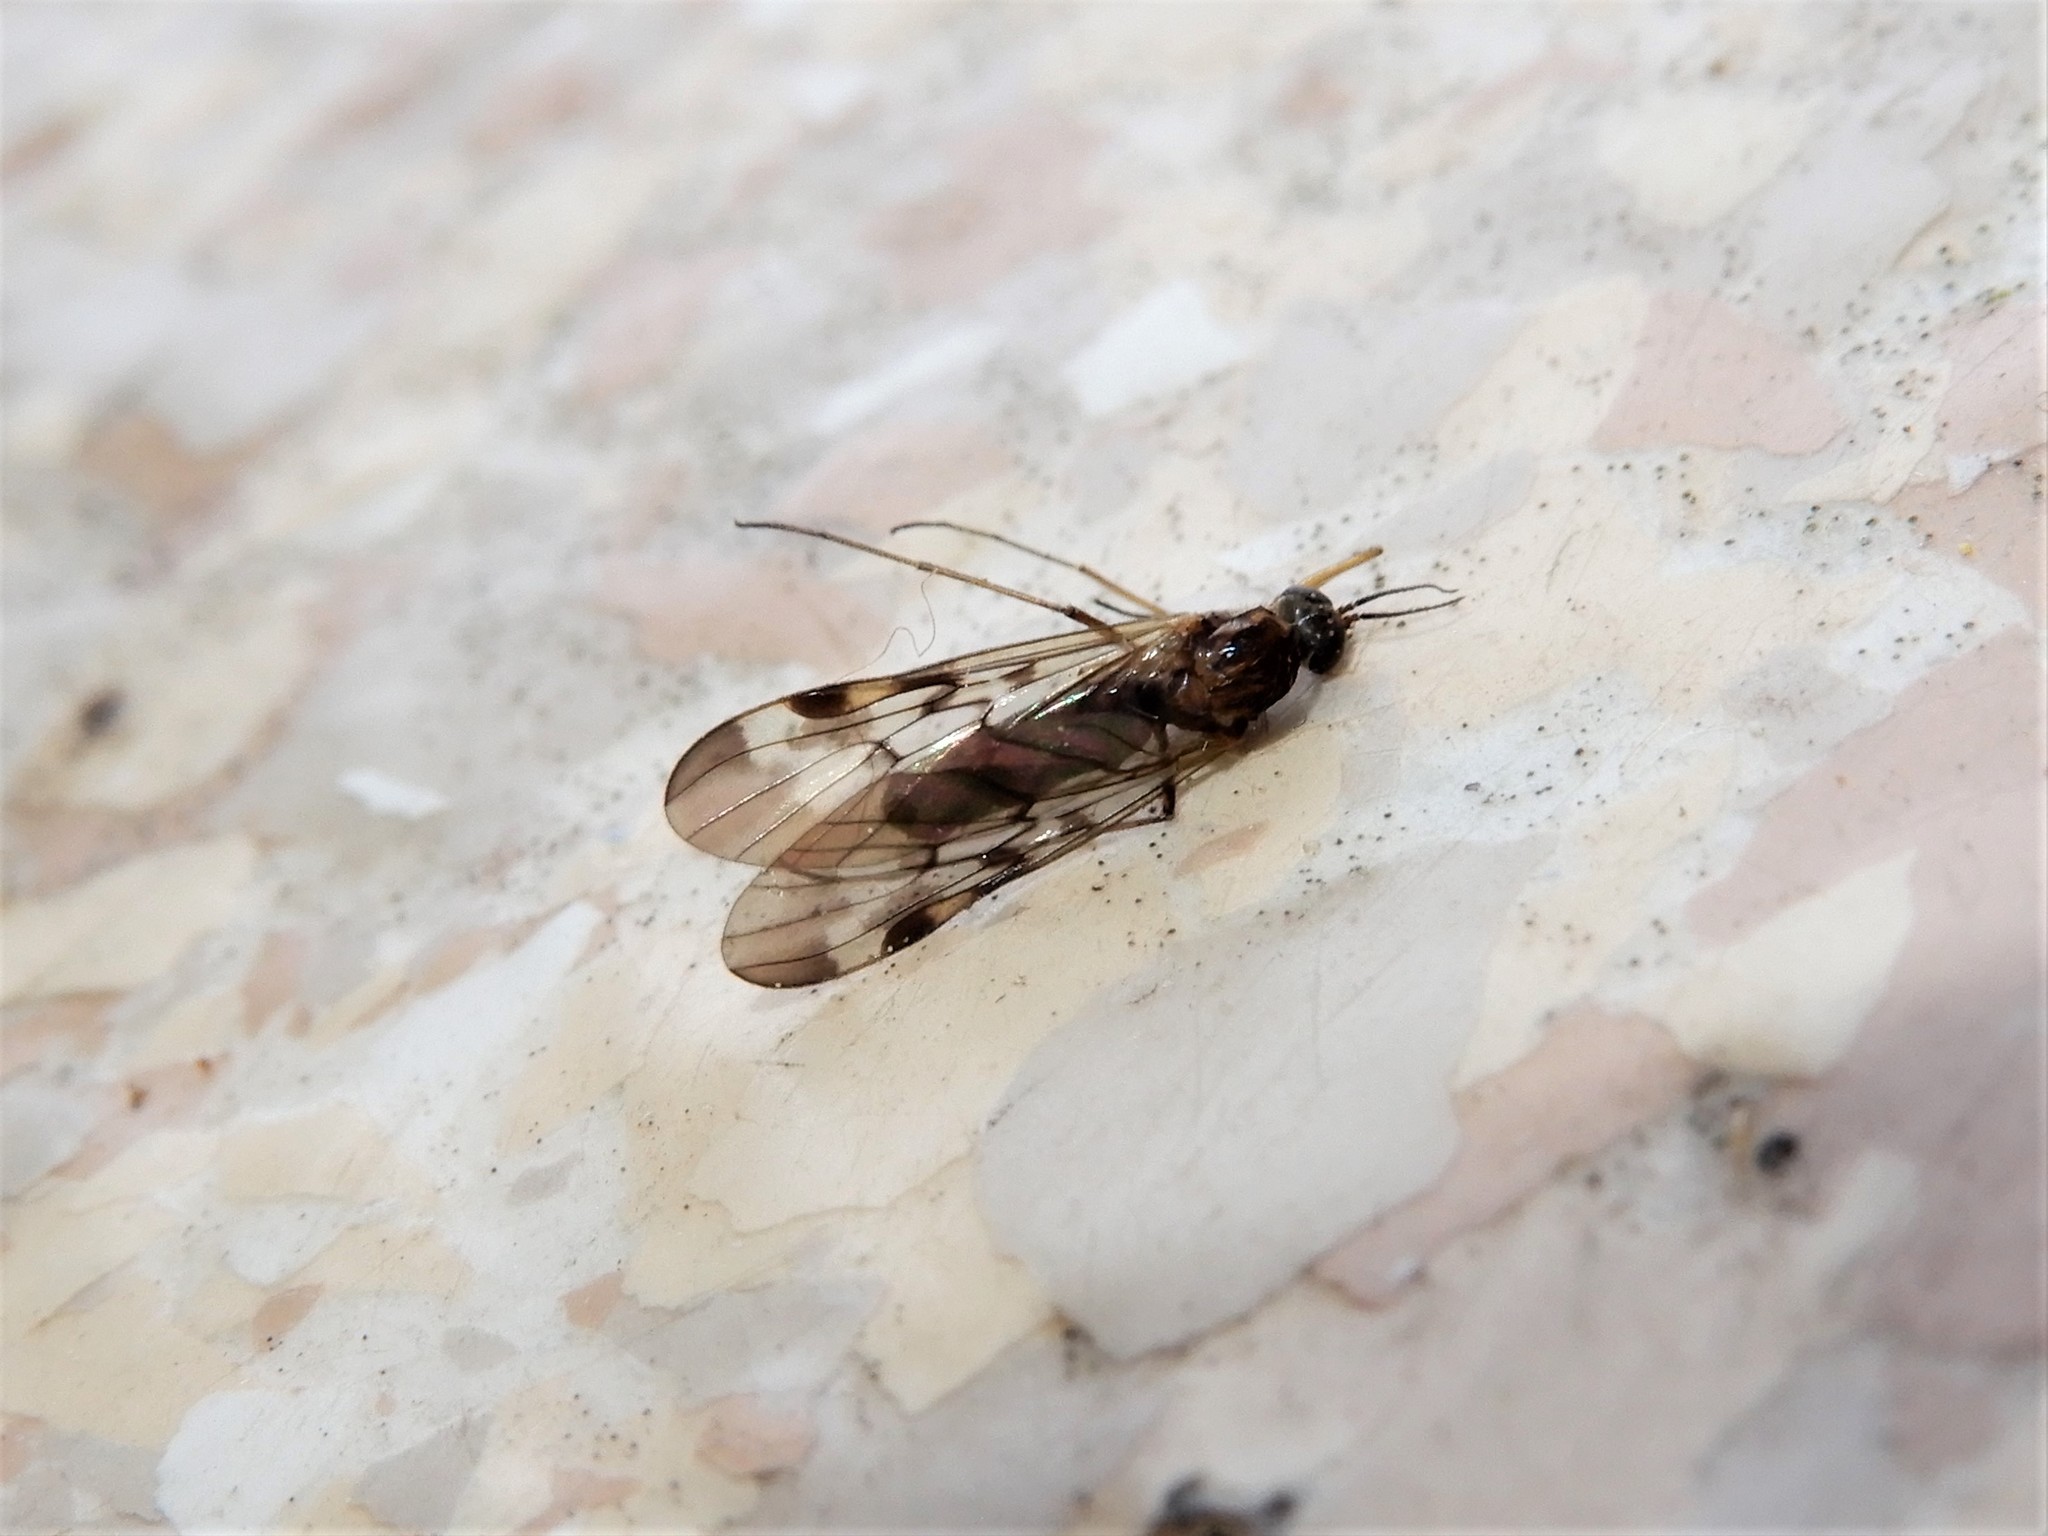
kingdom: Animalia
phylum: Arthropoda
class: Insecta
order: Diptera
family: Anisopodidae
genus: Sylvicola
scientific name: Sylvicola undulatus
